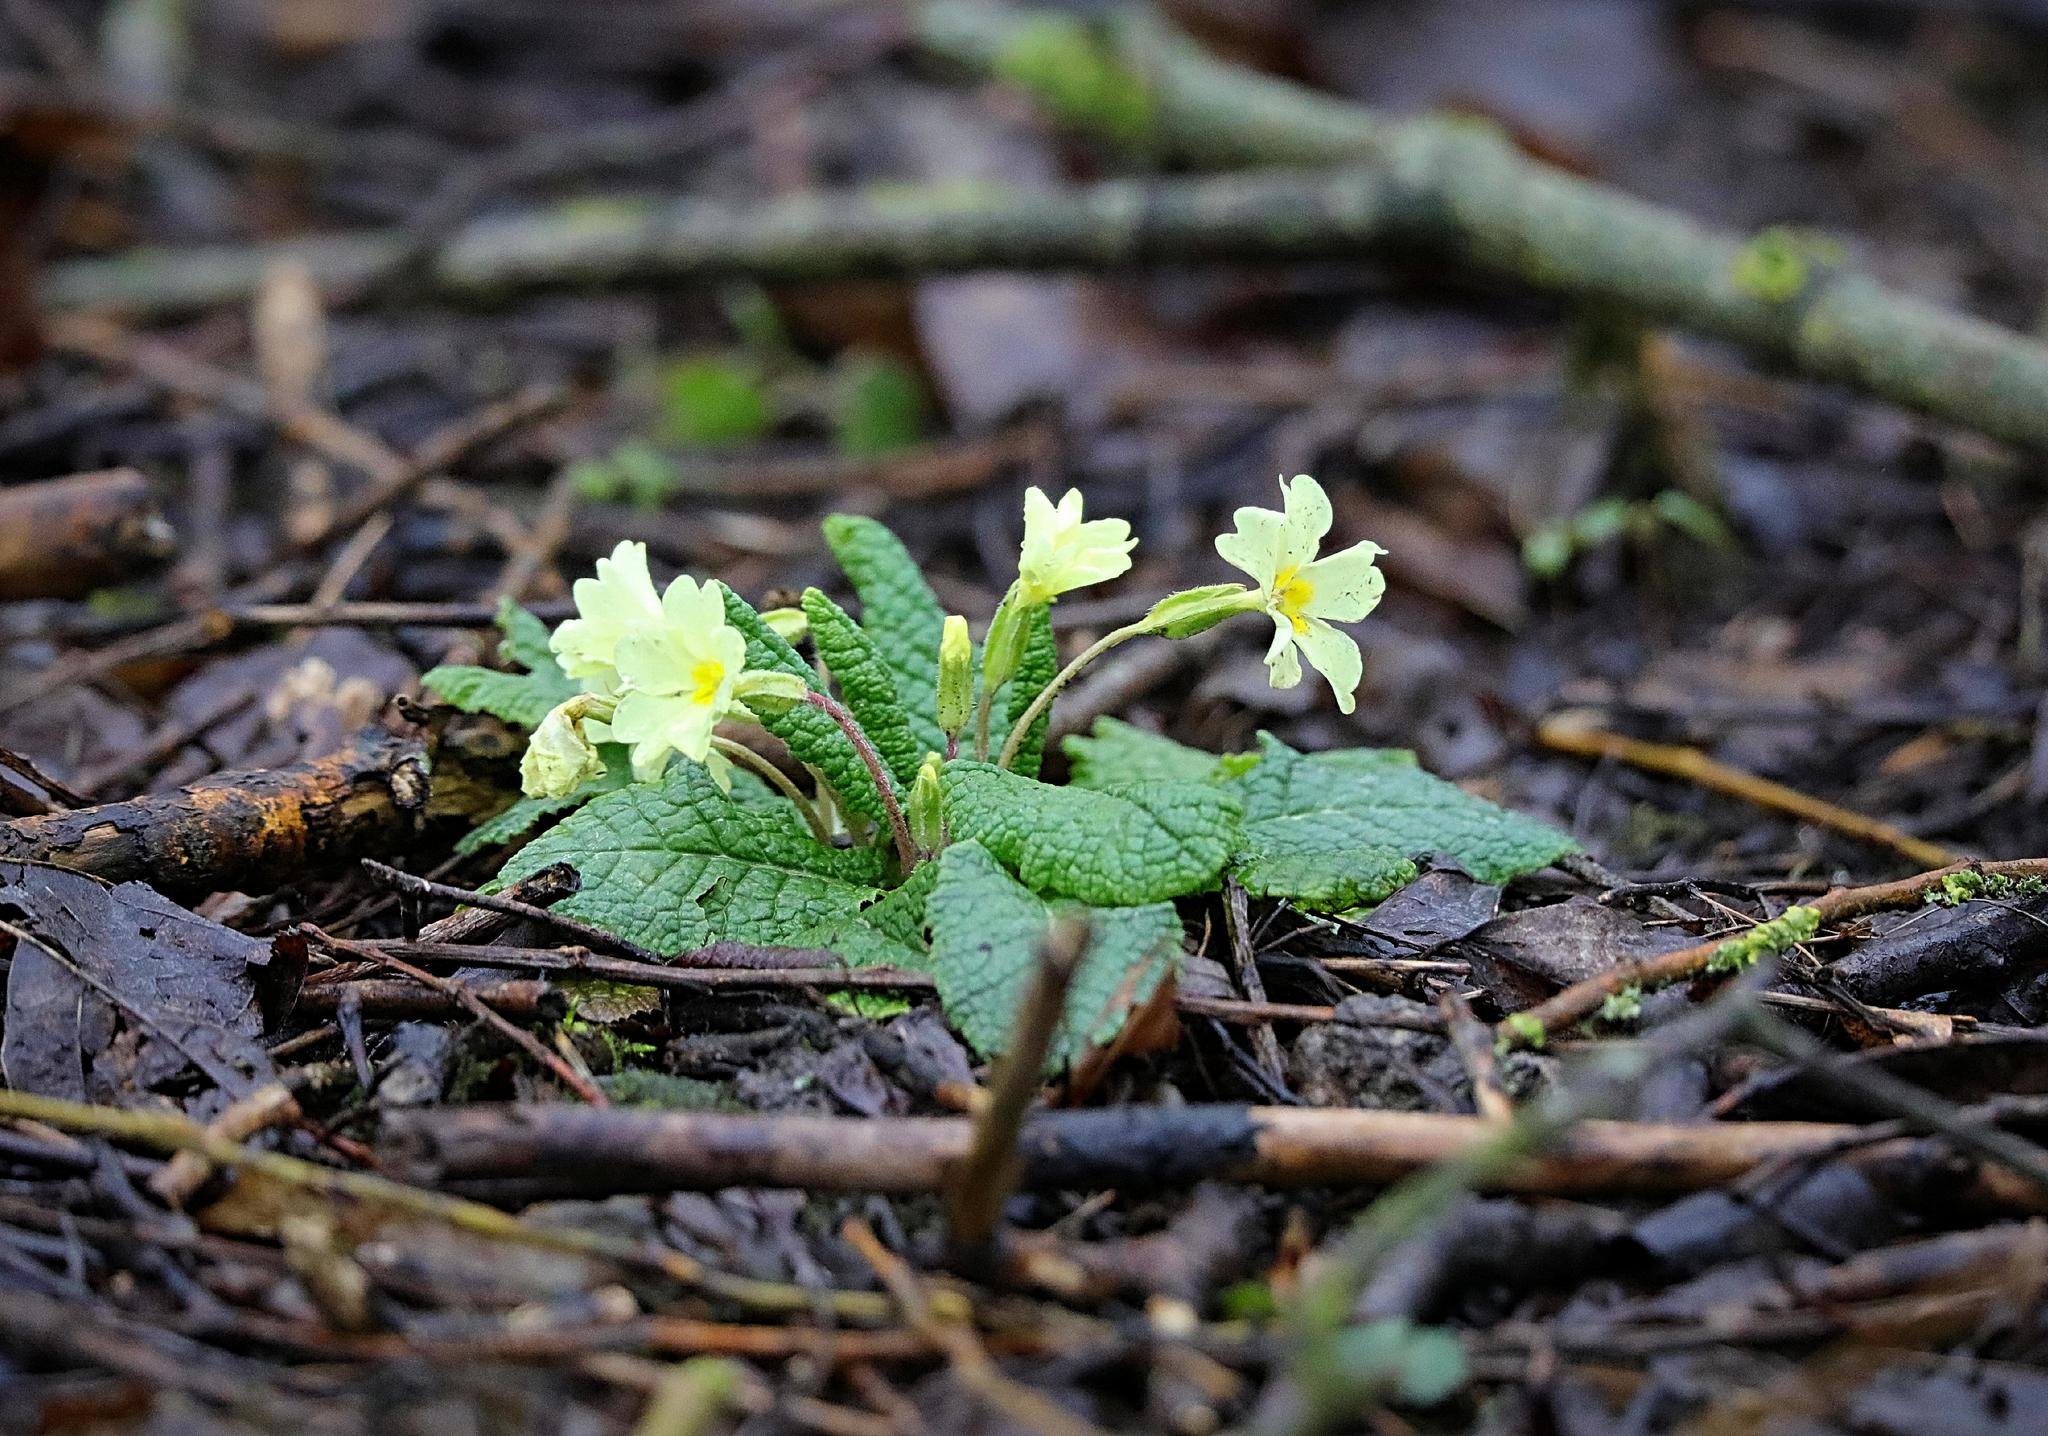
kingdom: Plantae
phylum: Tracheophyta
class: Magnoliopsida
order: Ericales
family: Primulaceae
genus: Primula
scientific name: Primula vulgaris
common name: Primrose
